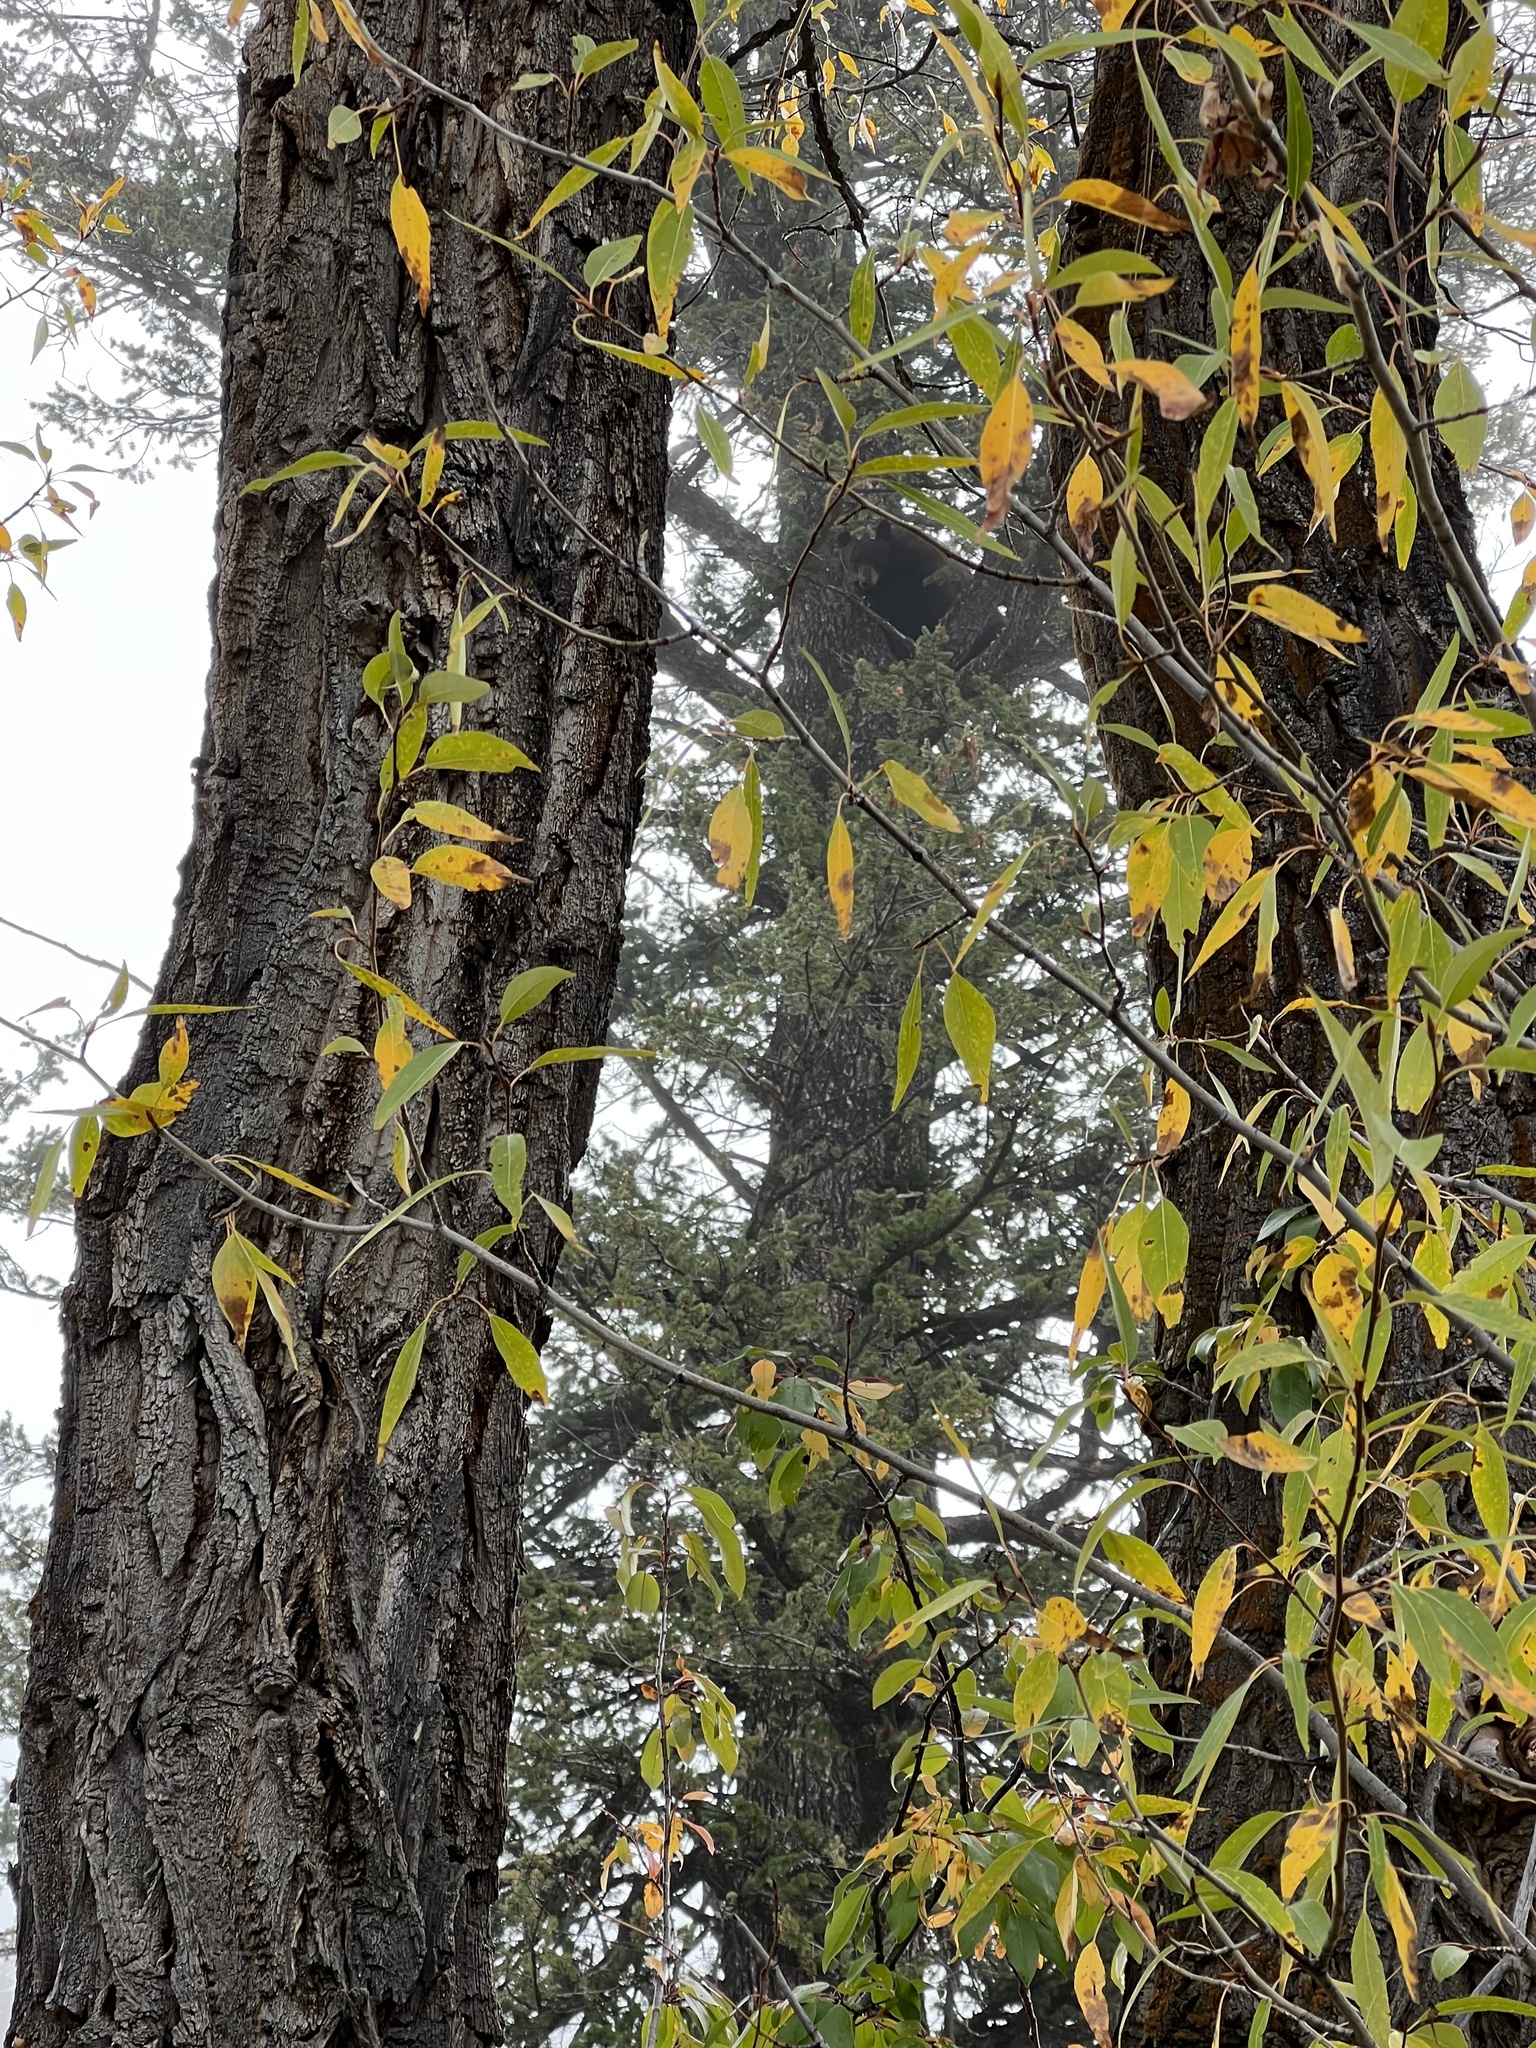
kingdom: Animalia
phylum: Chordata
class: Mammalia
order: Carnivora
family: Ursidae
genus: Ursus
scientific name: Ursus americanus
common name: American black bear
